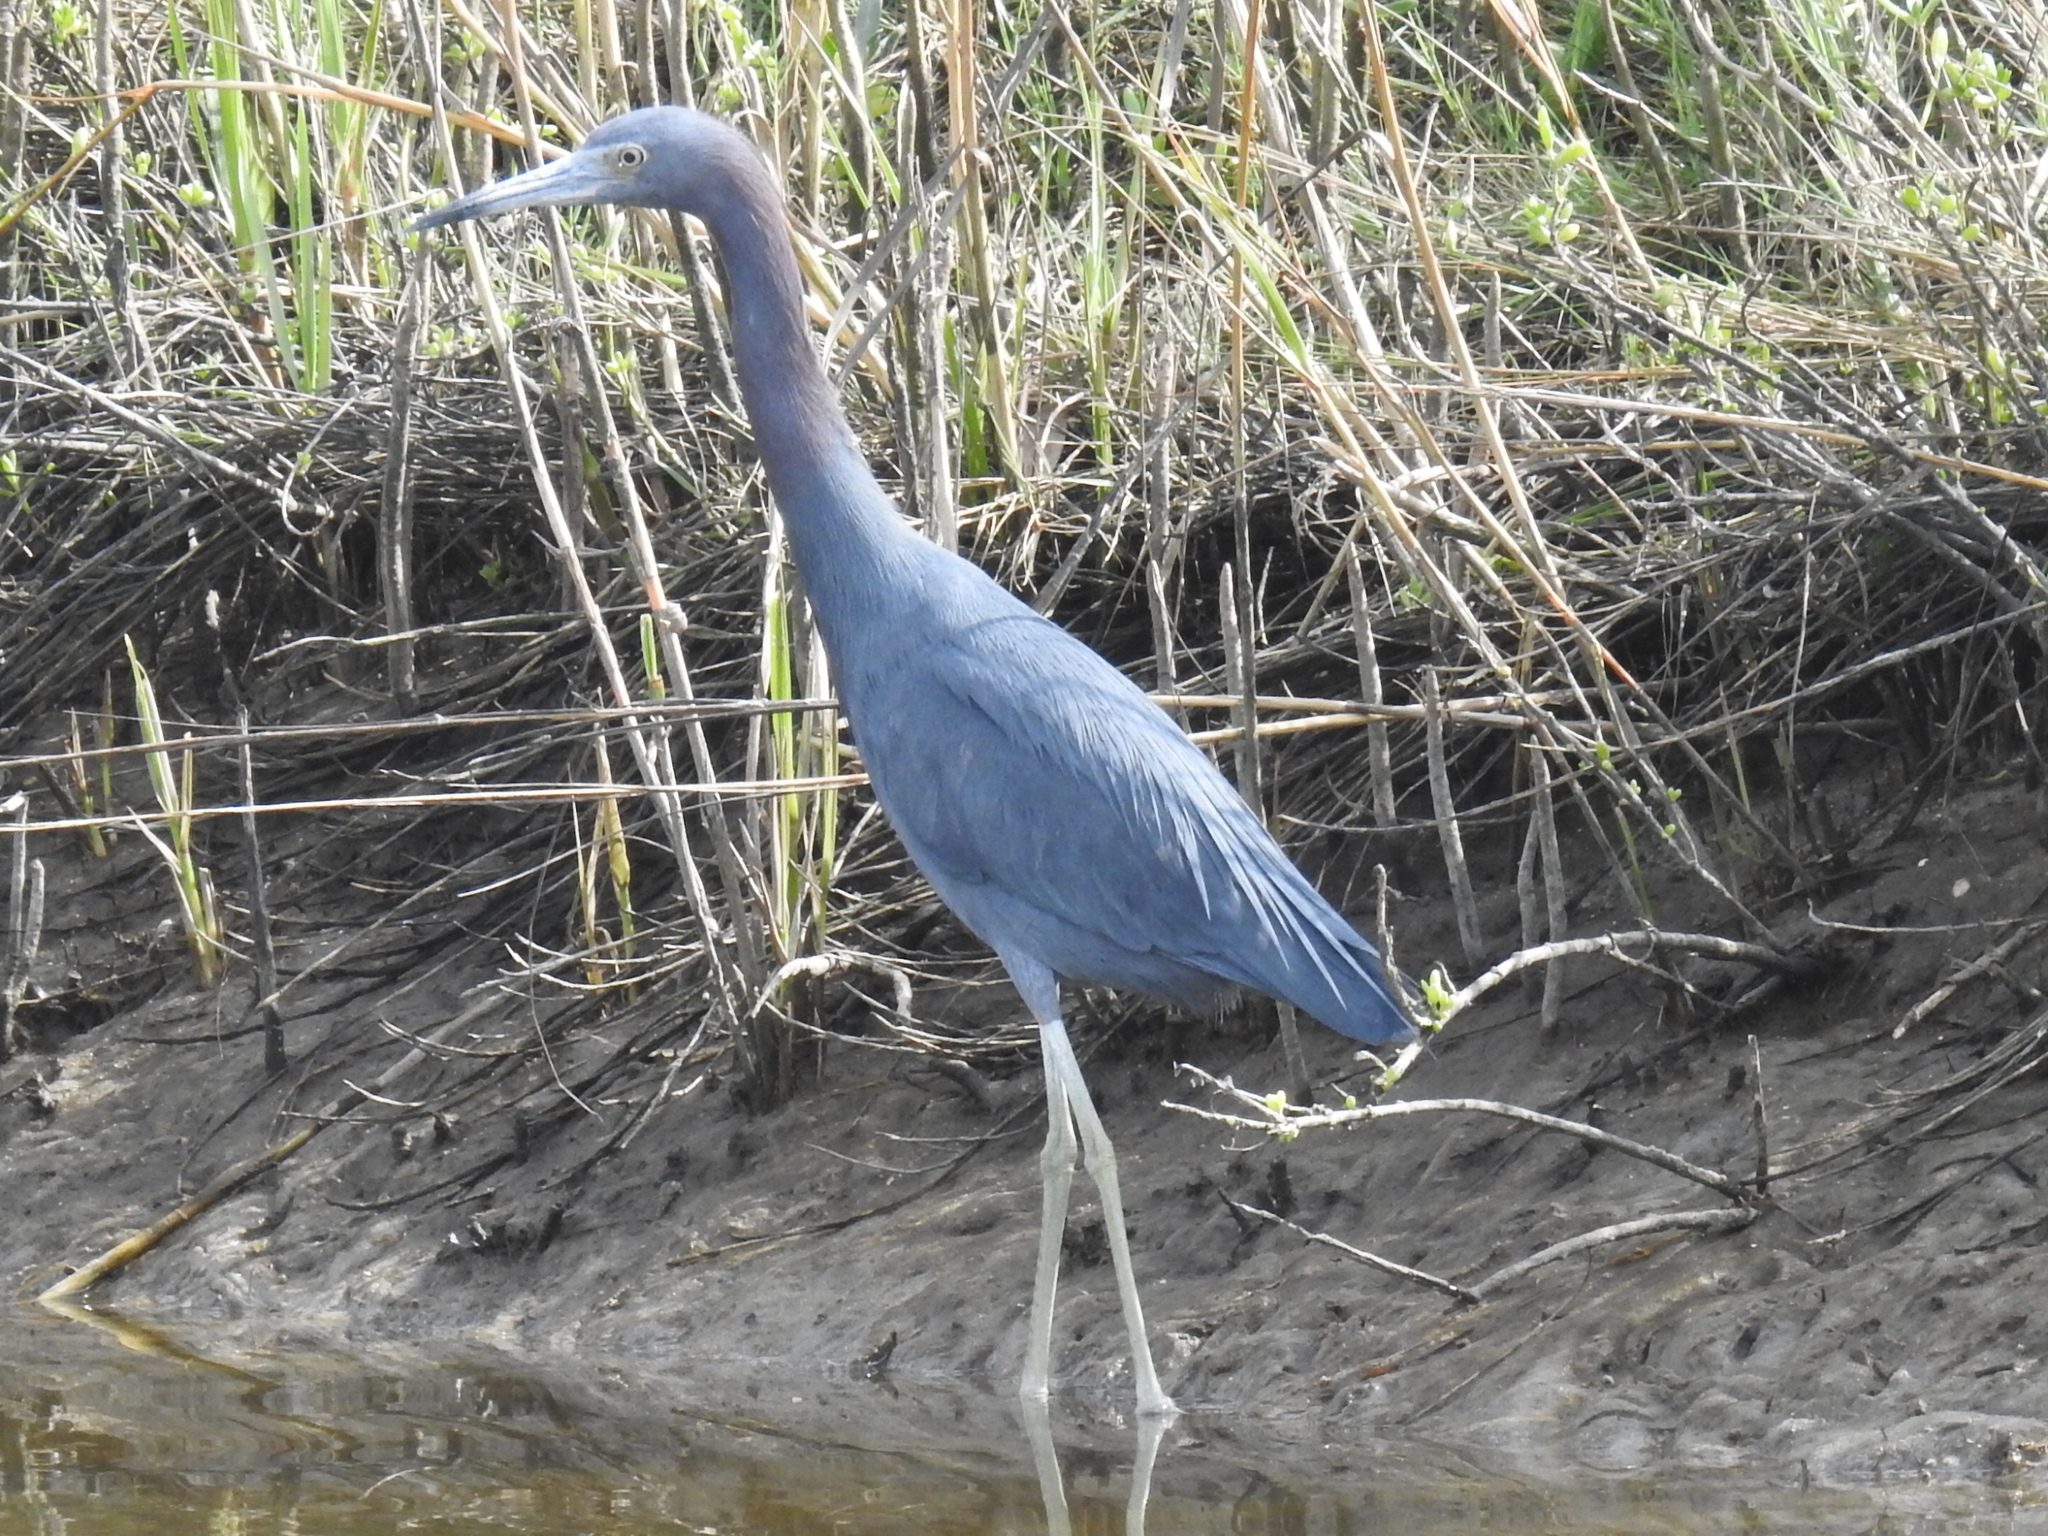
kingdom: Animalia
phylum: Chordata
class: Aves
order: Pelecaniformes
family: Ardeidae
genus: Egretta
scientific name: Egretta caerulea
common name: Little blue heron
